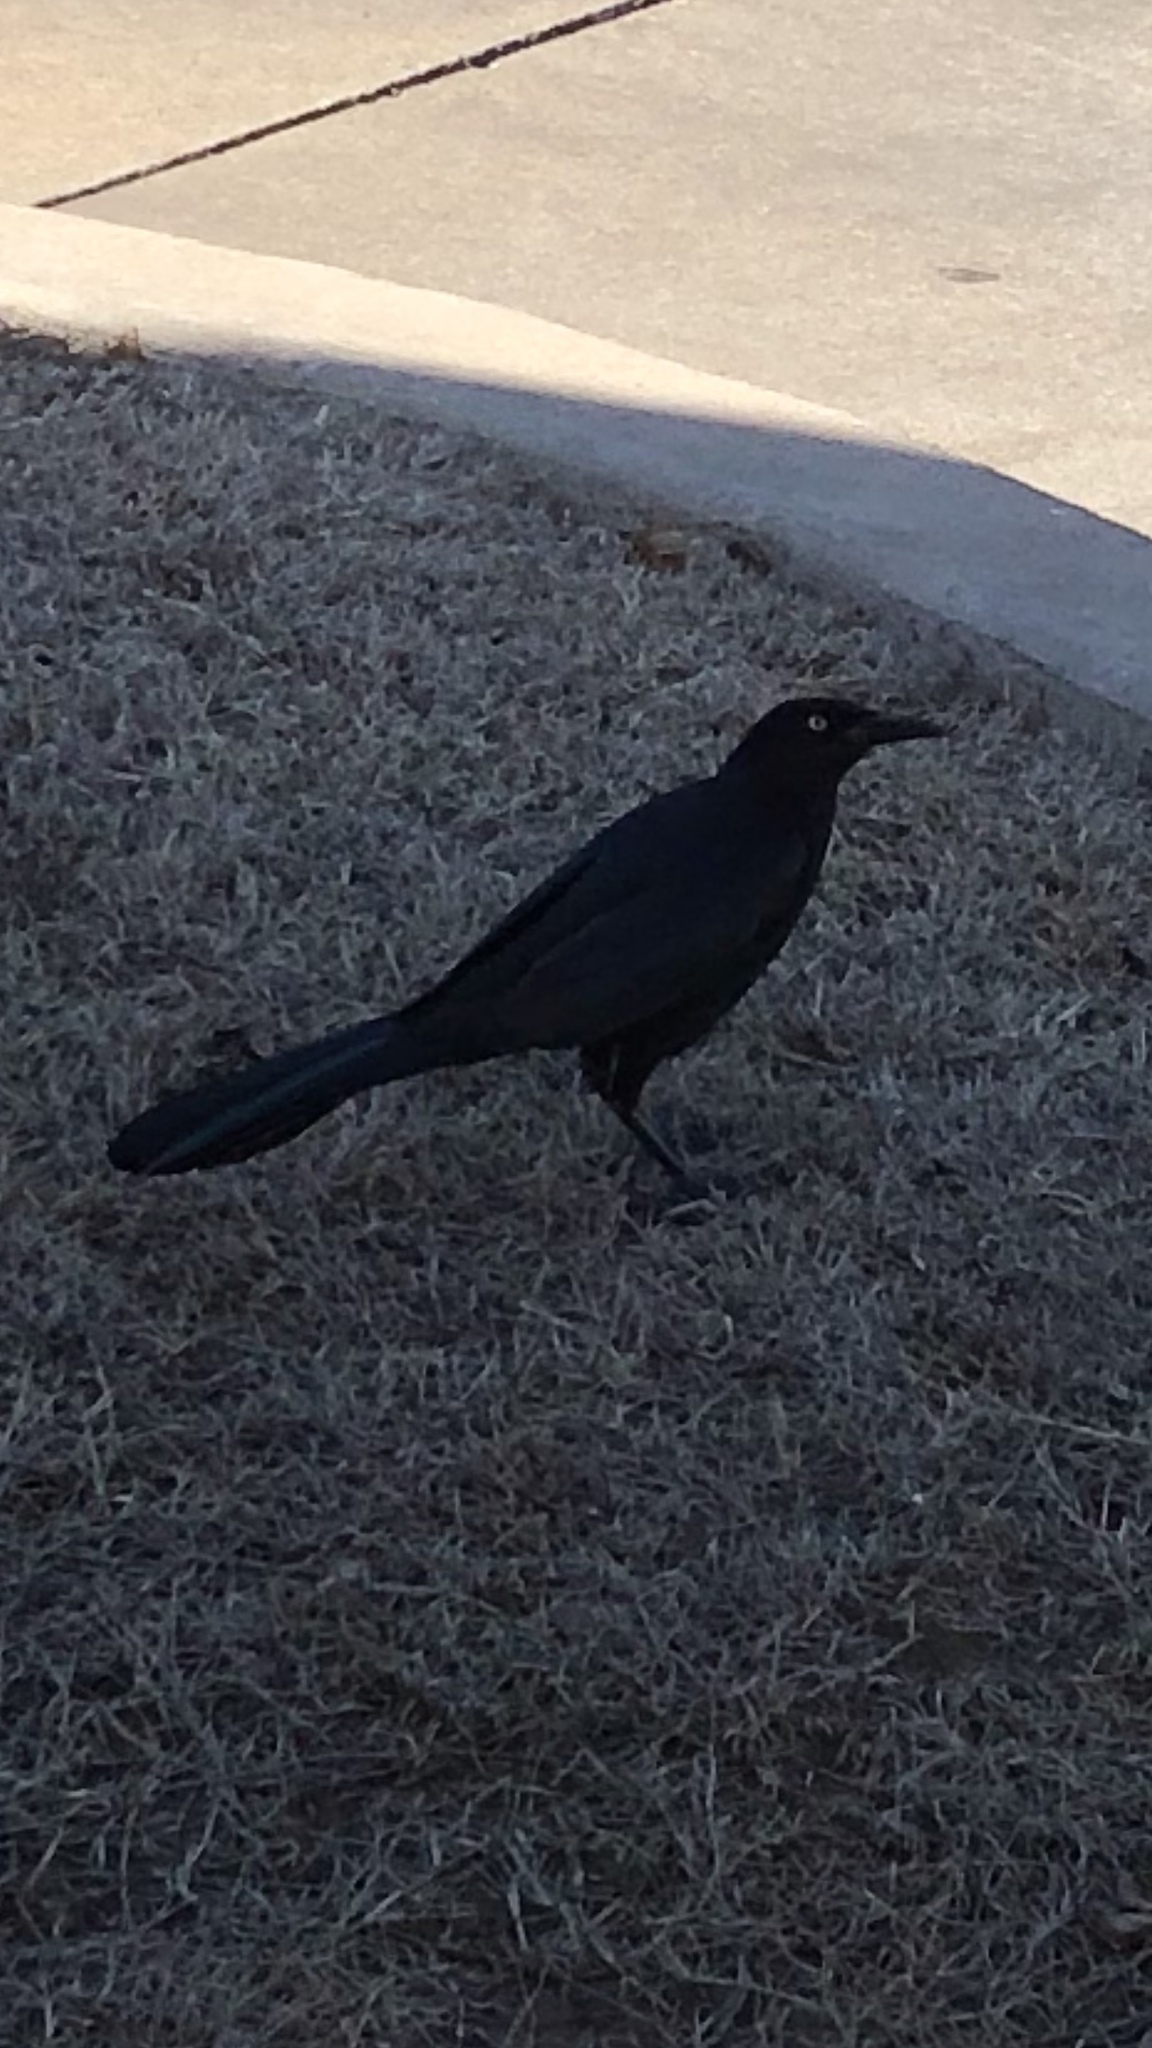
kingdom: Animalia
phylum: Chordata
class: Aves
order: Passeriformes
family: Icteridae
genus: Quiscalus
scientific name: Quiscalus mexicanus
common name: Great-tailed grackle
